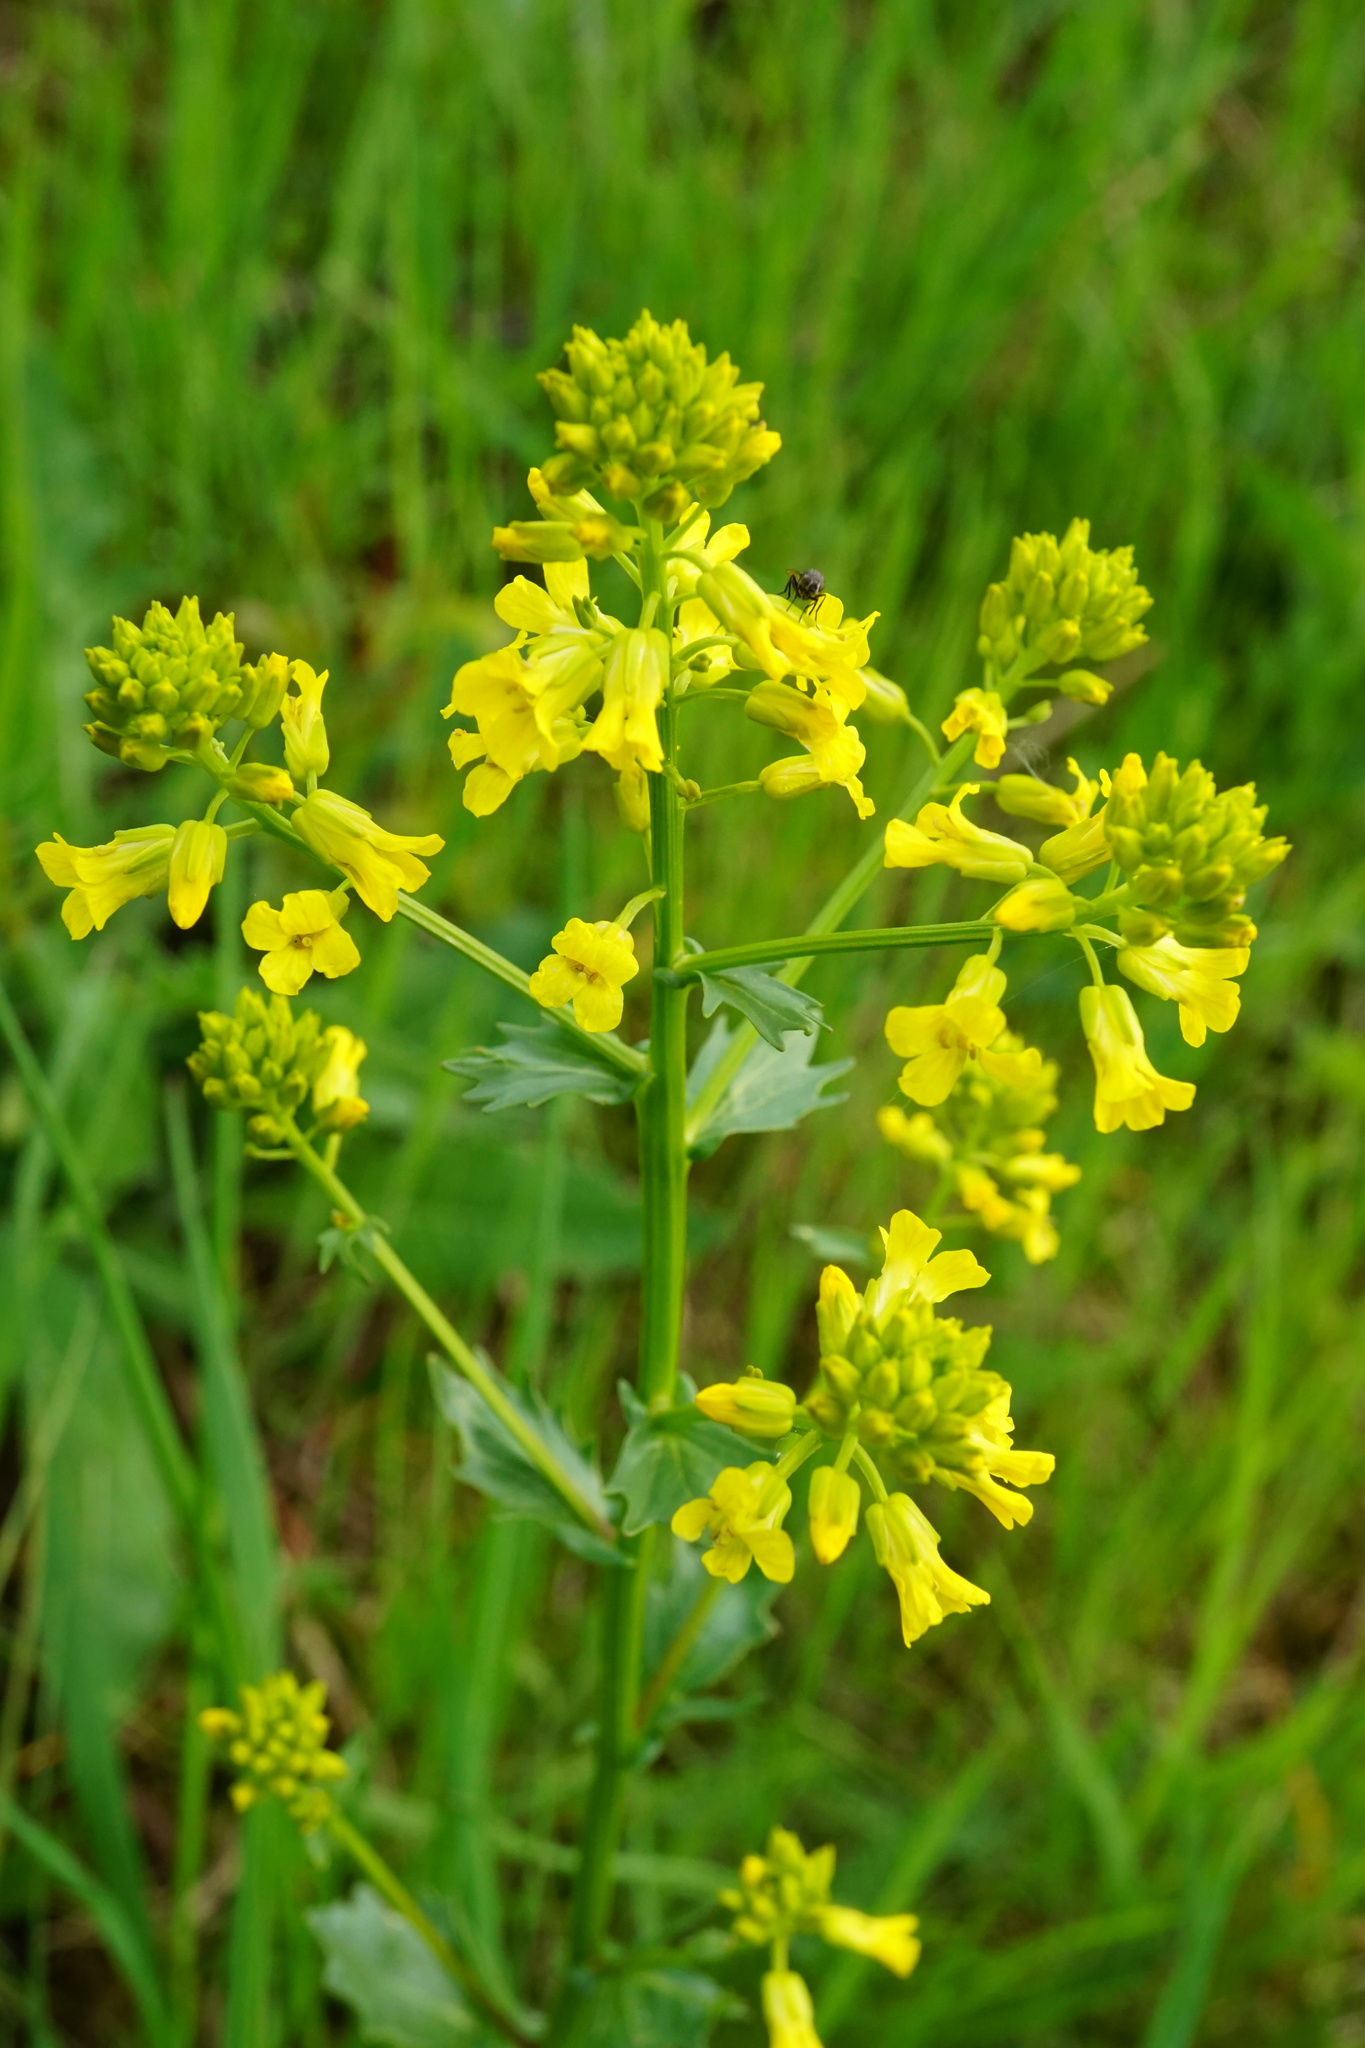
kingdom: Plantae
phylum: Tracheophyta
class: Magnoliopsida
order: Brassicales
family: Brassicaceae
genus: Barbarea
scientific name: Barbarea vulgaris
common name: Cressy-greens
